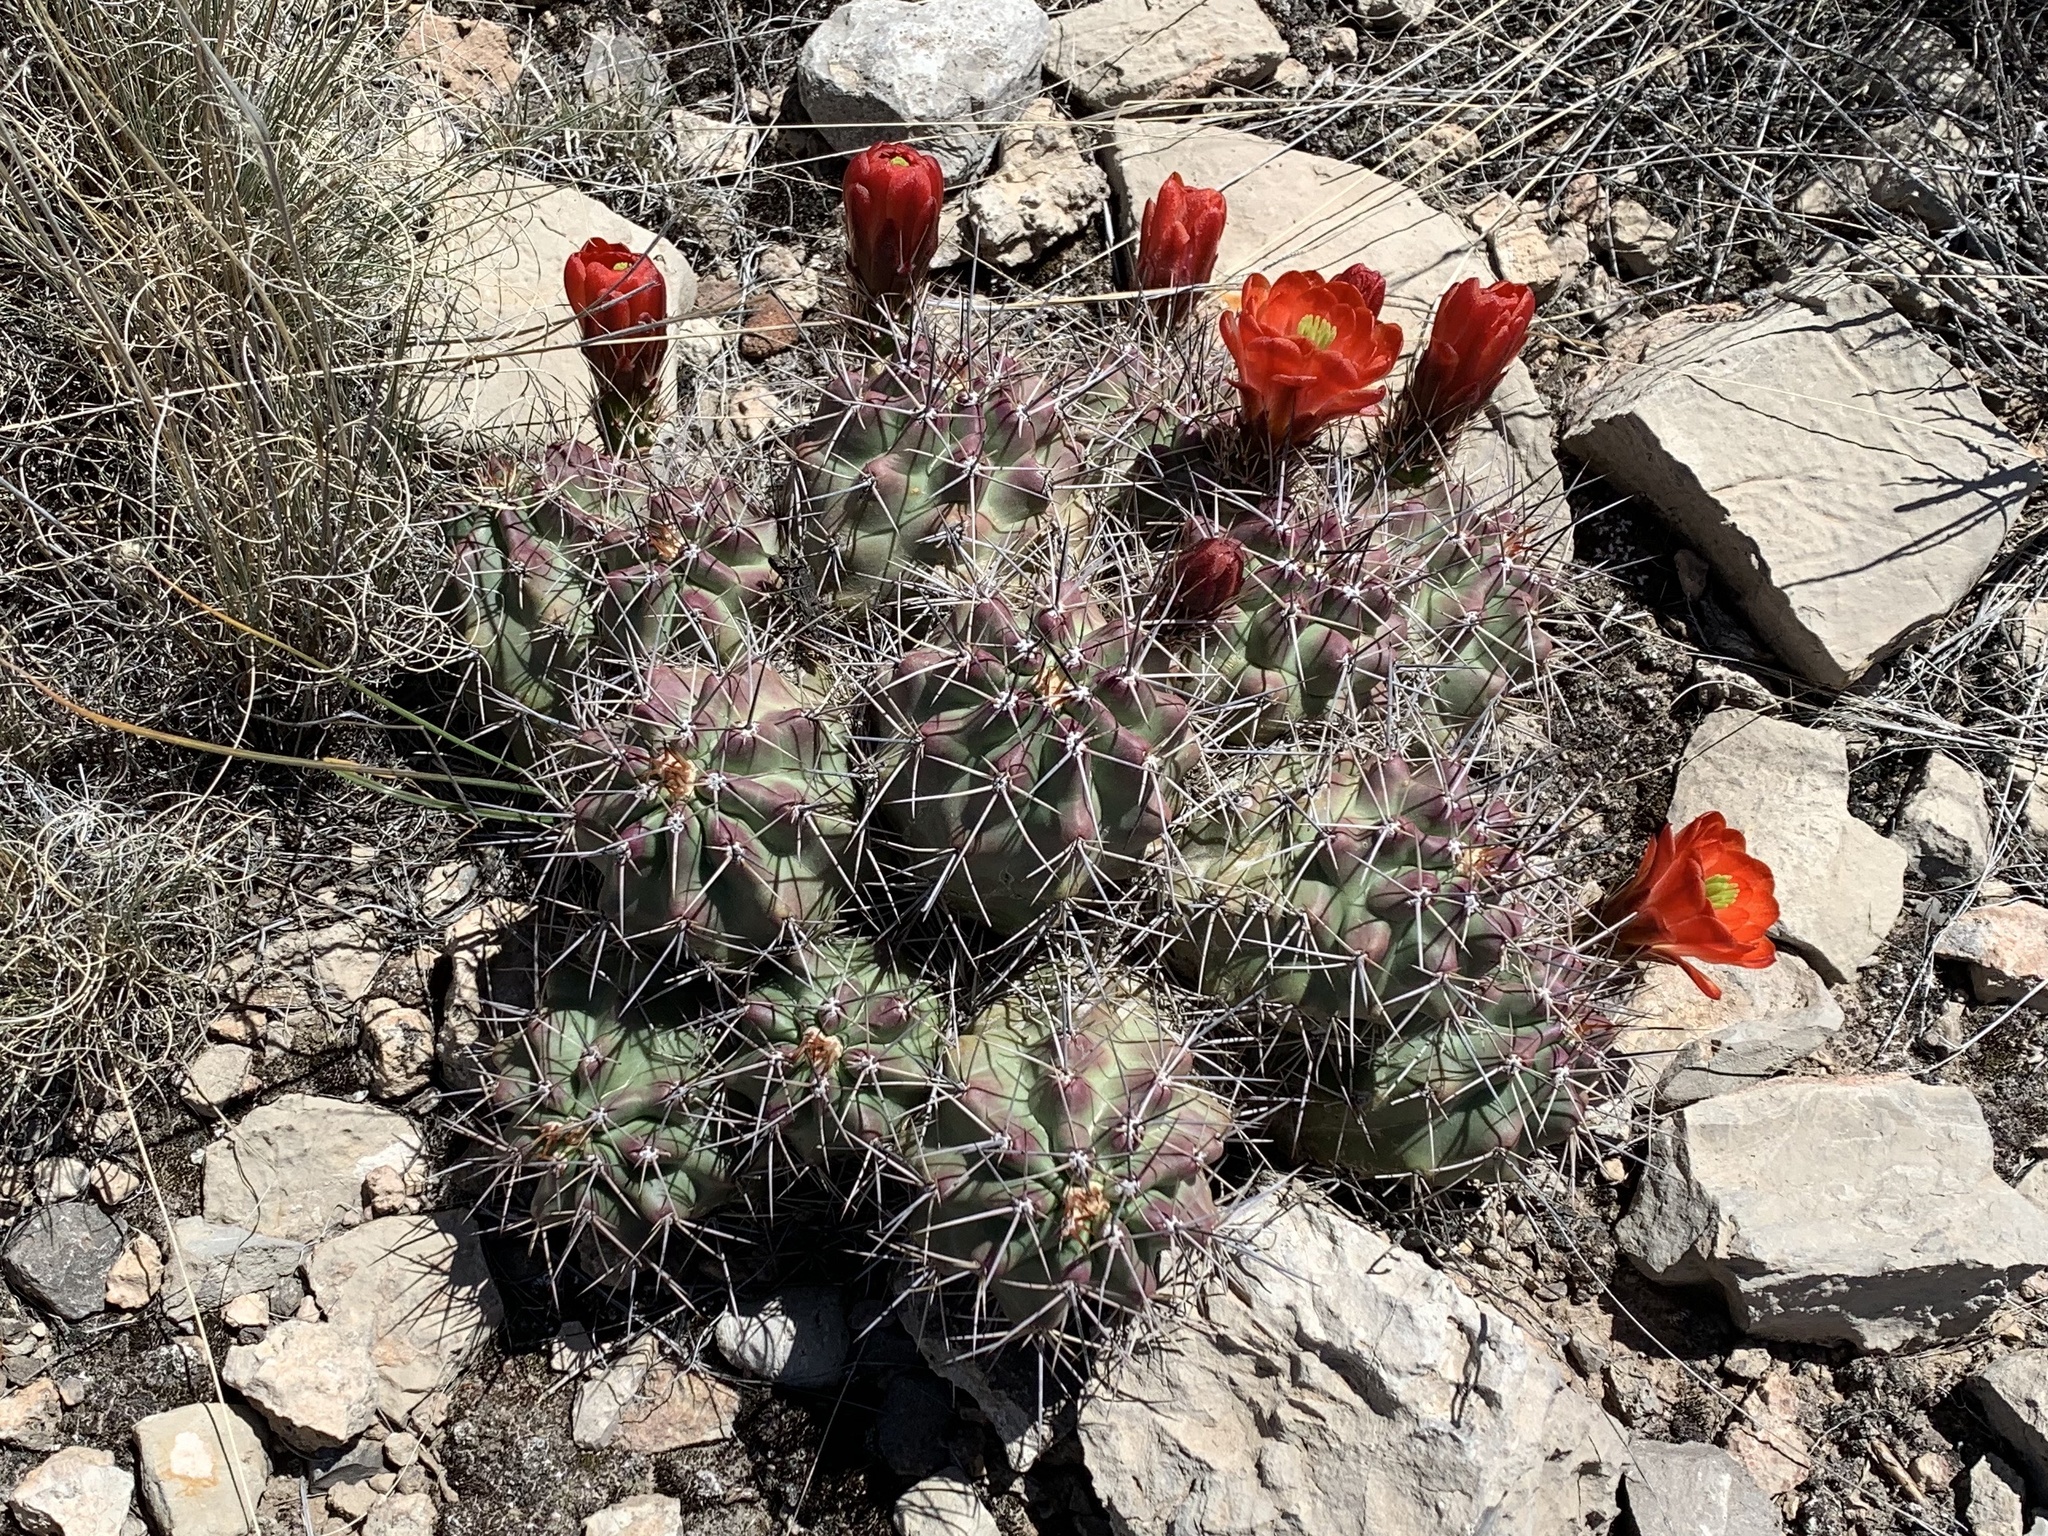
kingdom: Plantae
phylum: Tracheophyta
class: Magnoliopsida
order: Caryophyllales
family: Cactaceae
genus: Echinocereus
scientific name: Echinocereus coccineus
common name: Scarlet hedgehog cactus
